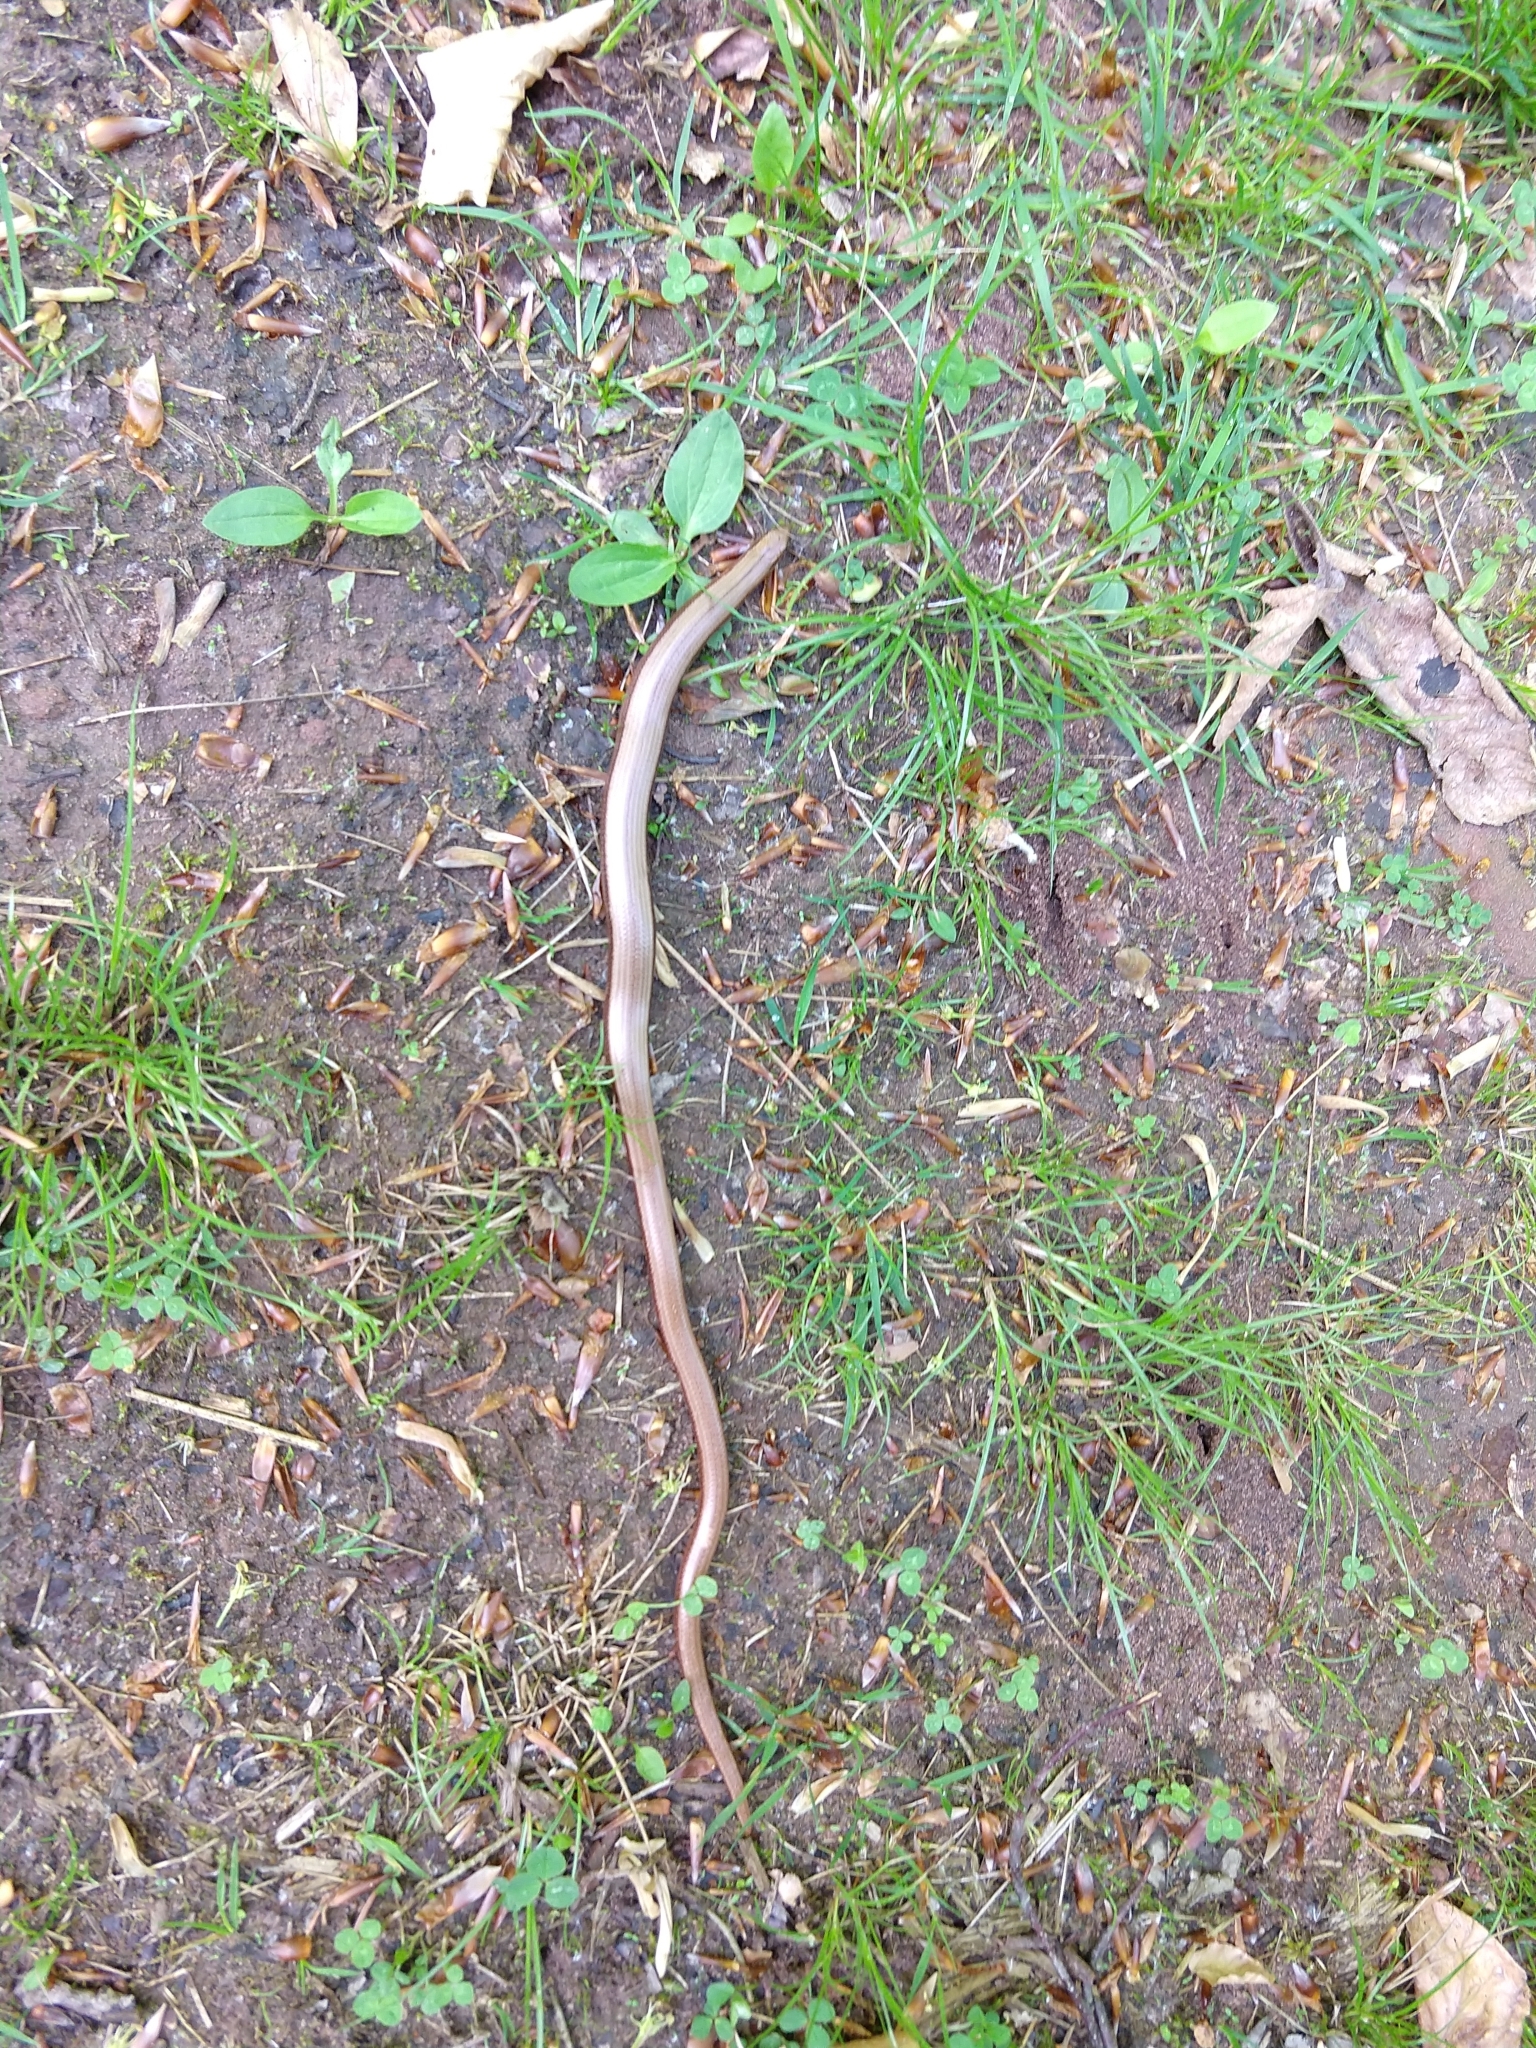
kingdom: Animalia
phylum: Chordata
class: Squamata
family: Anguidae
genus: Anguis
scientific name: Anguis fragilis
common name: Slow worm
